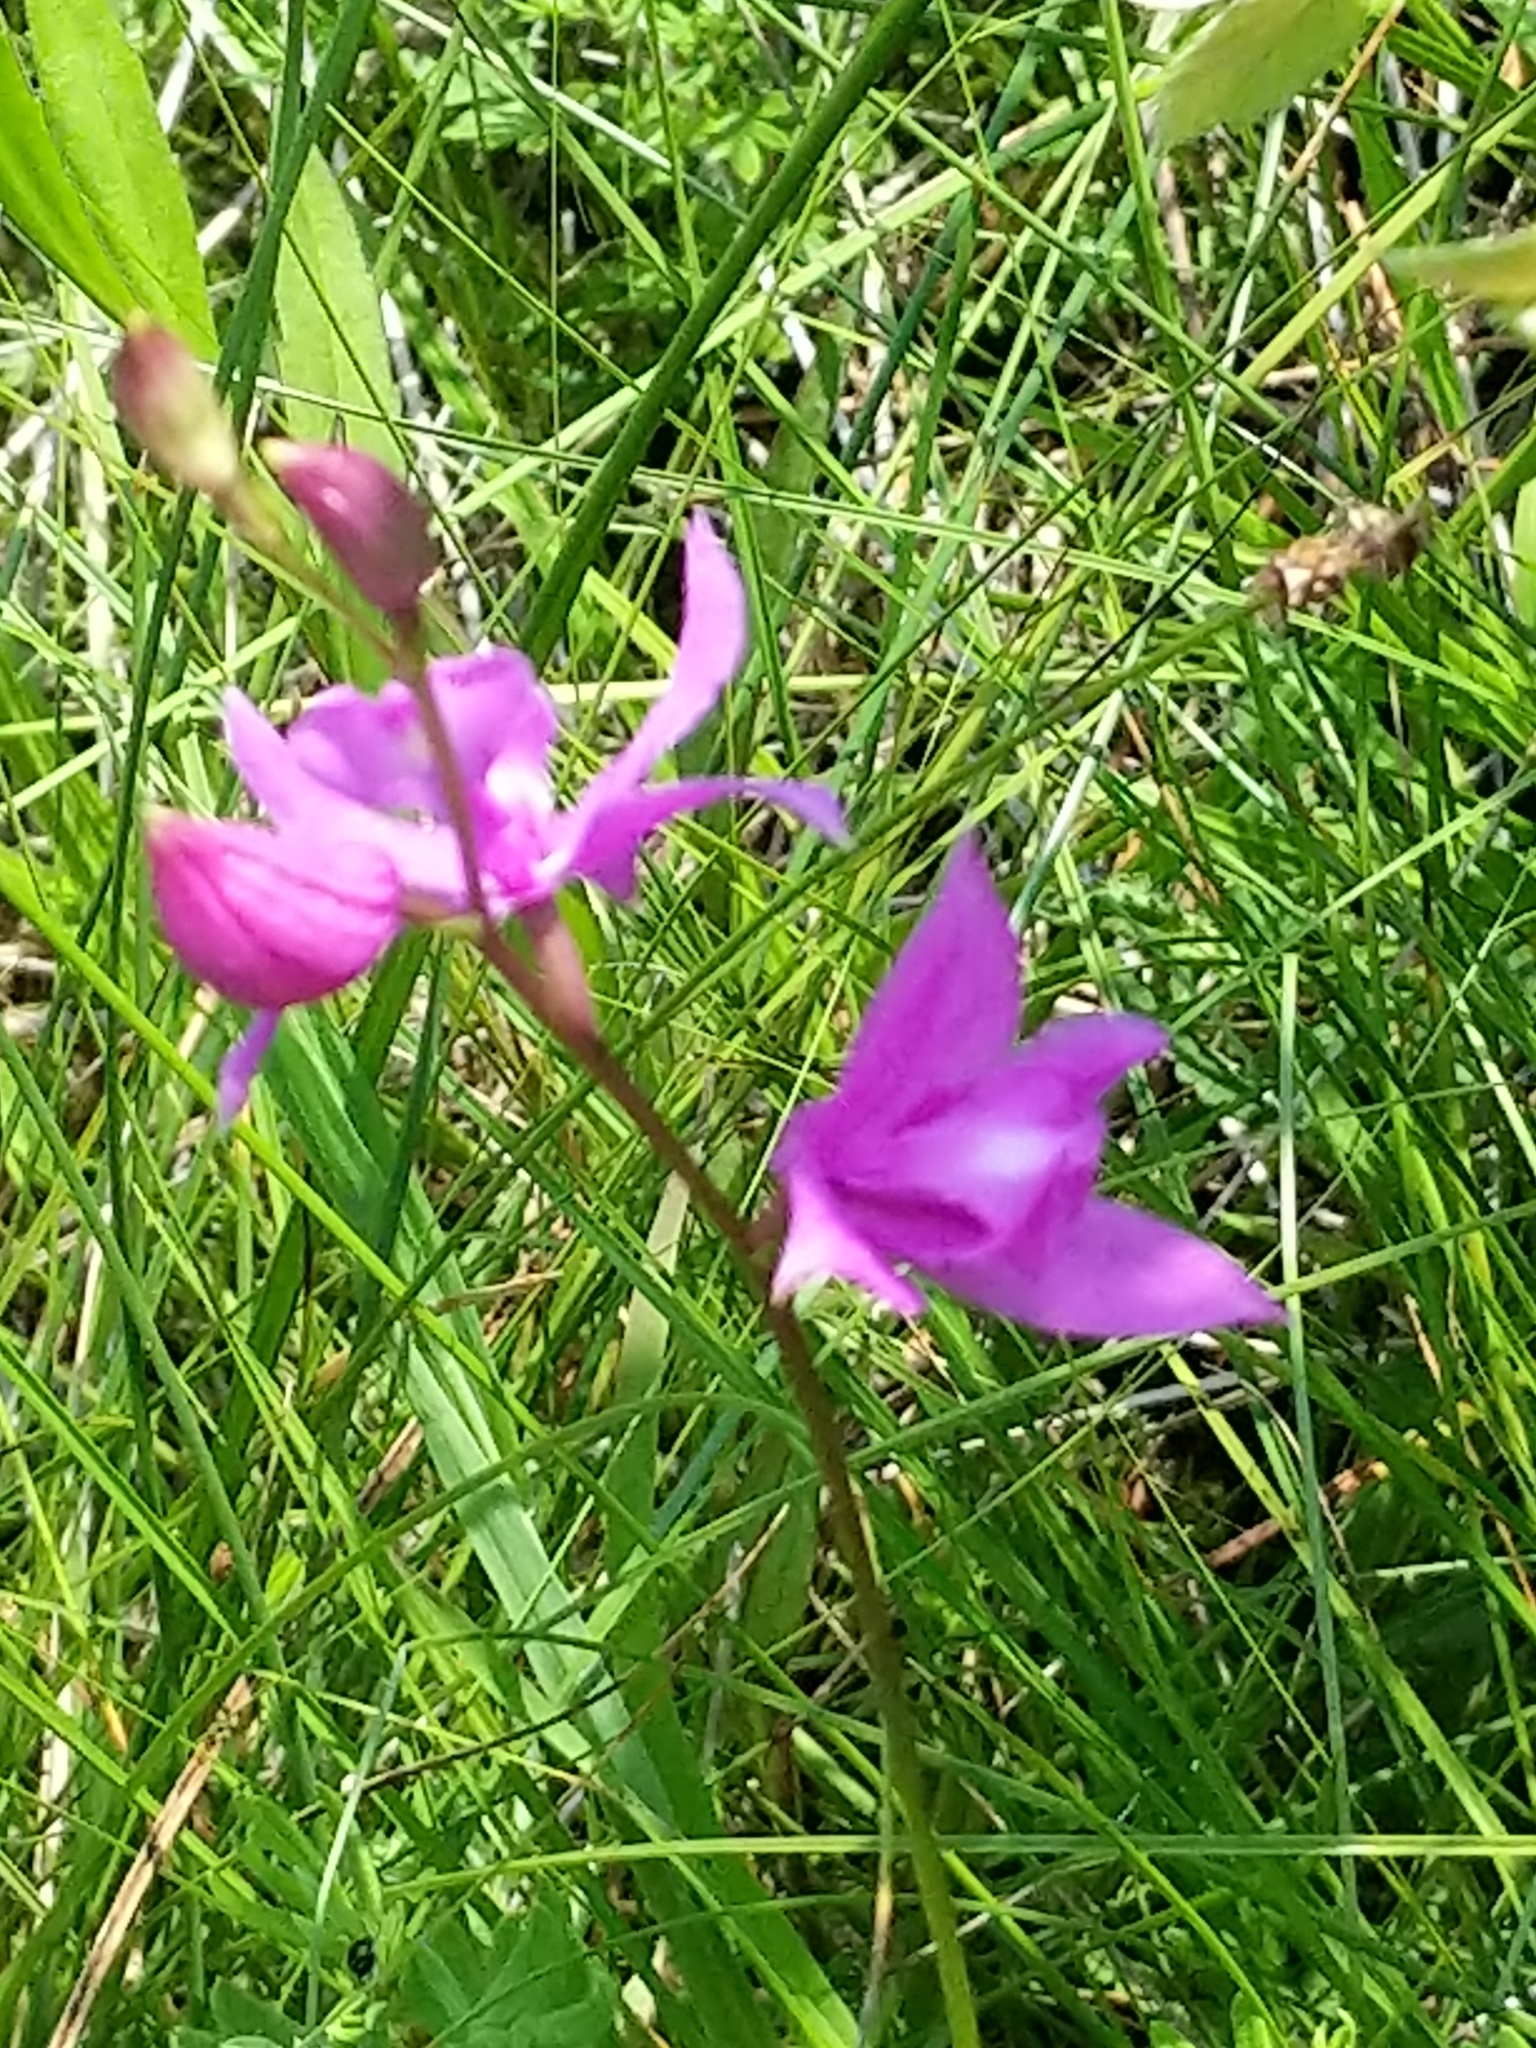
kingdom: Plantae
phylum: Tracheophyta
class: Liliopsida
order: Asparagales
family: Orchidaceae
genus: Calopogon
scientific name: Calopogon tuberosus
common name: Grass-pink
